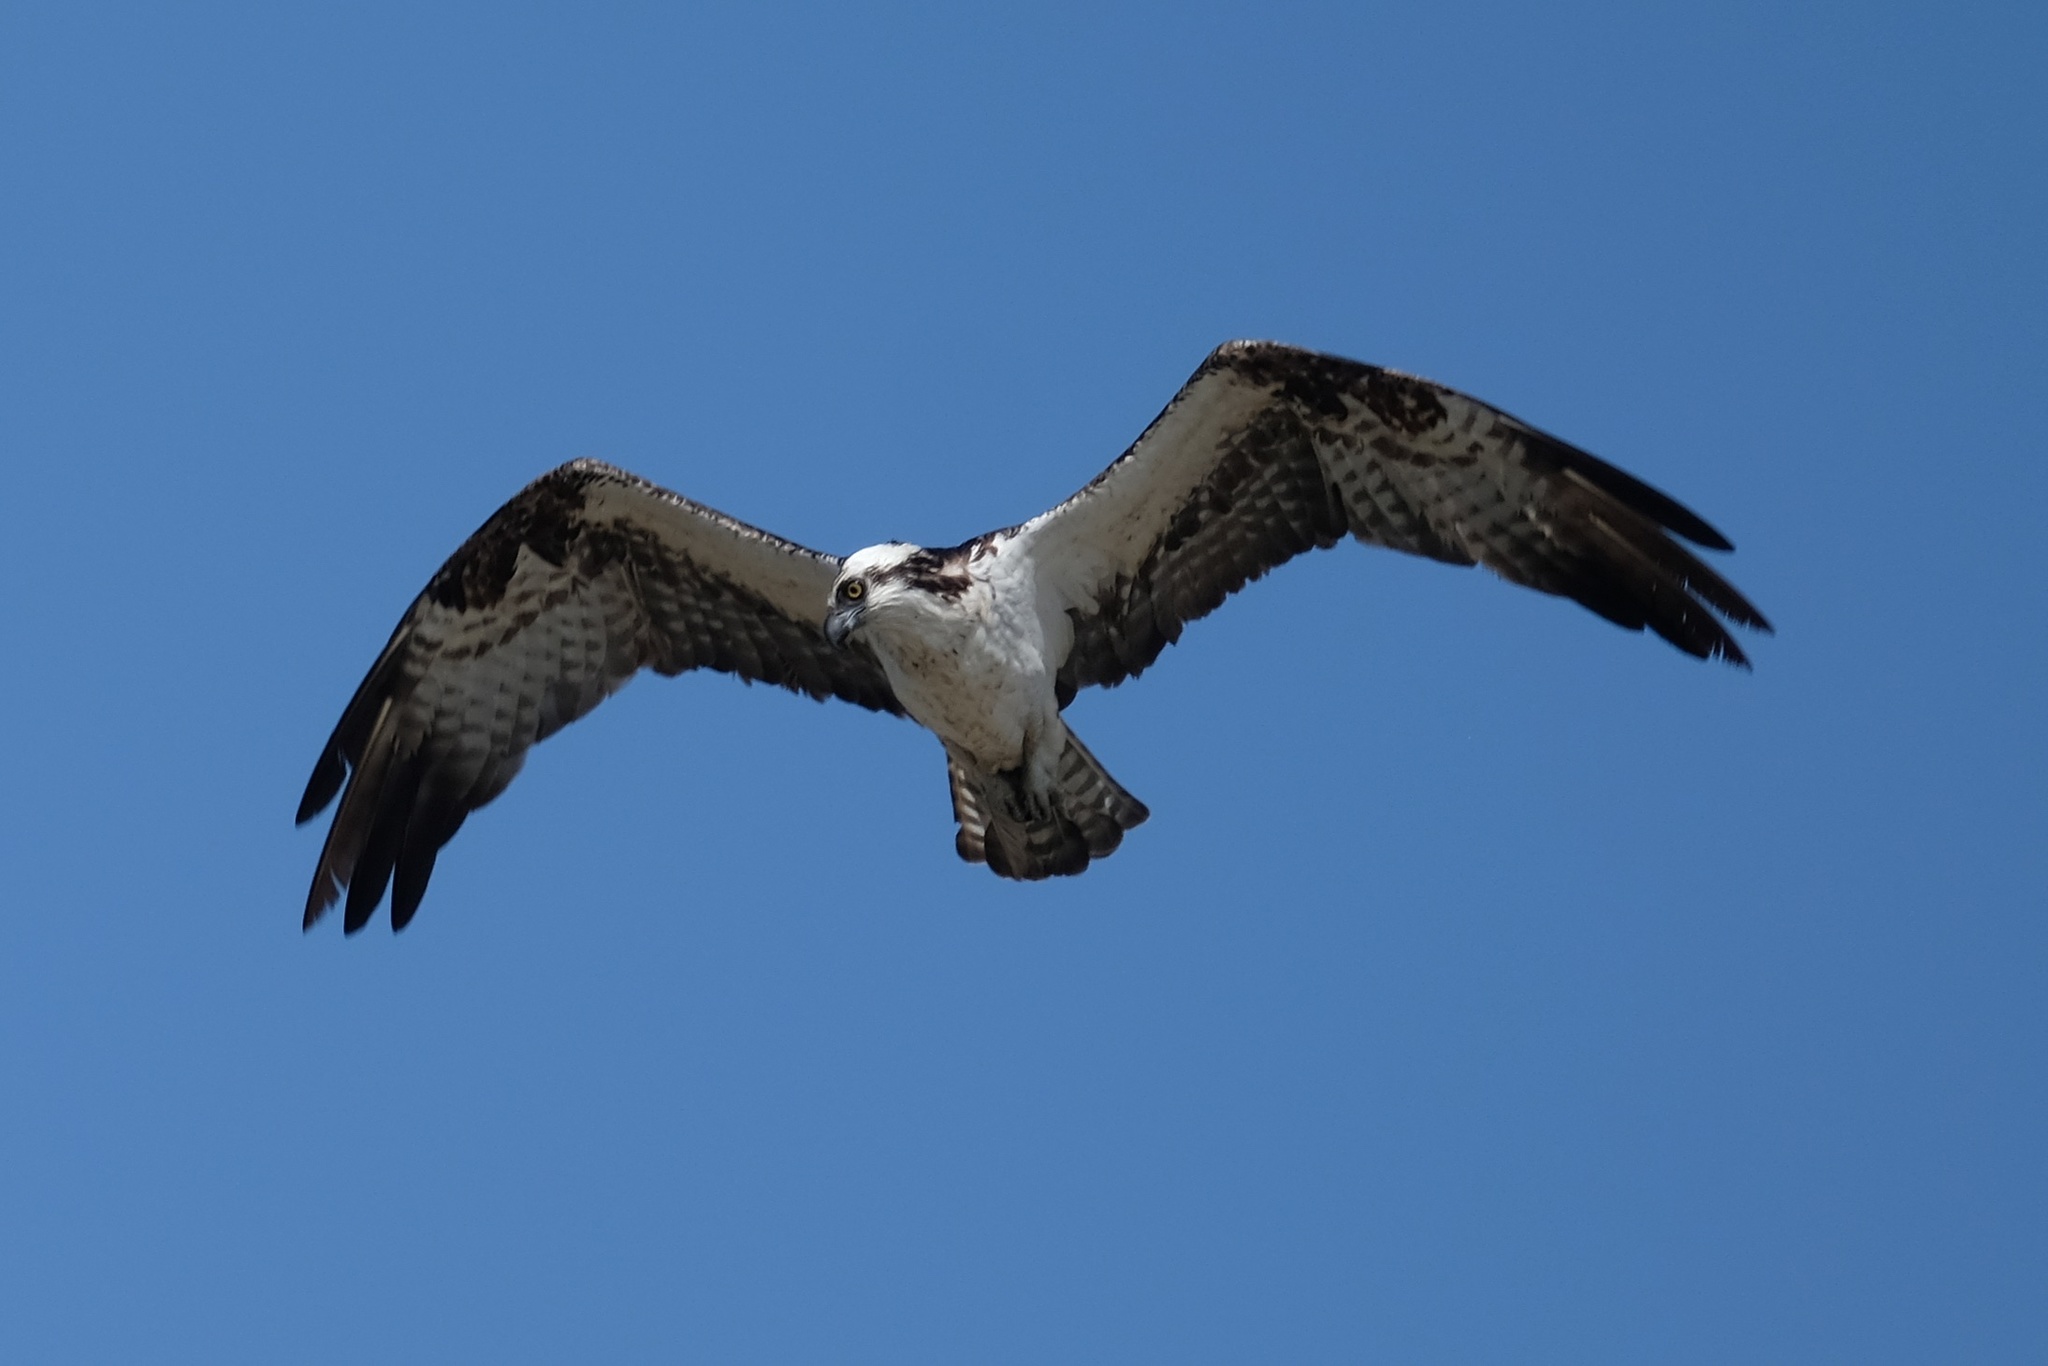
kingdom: Animalia
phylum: Chordata
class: Aves
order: Accipitriformes
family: Pandionidae
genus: Pandion
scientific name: Pandion haliaetus
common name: Osprey
